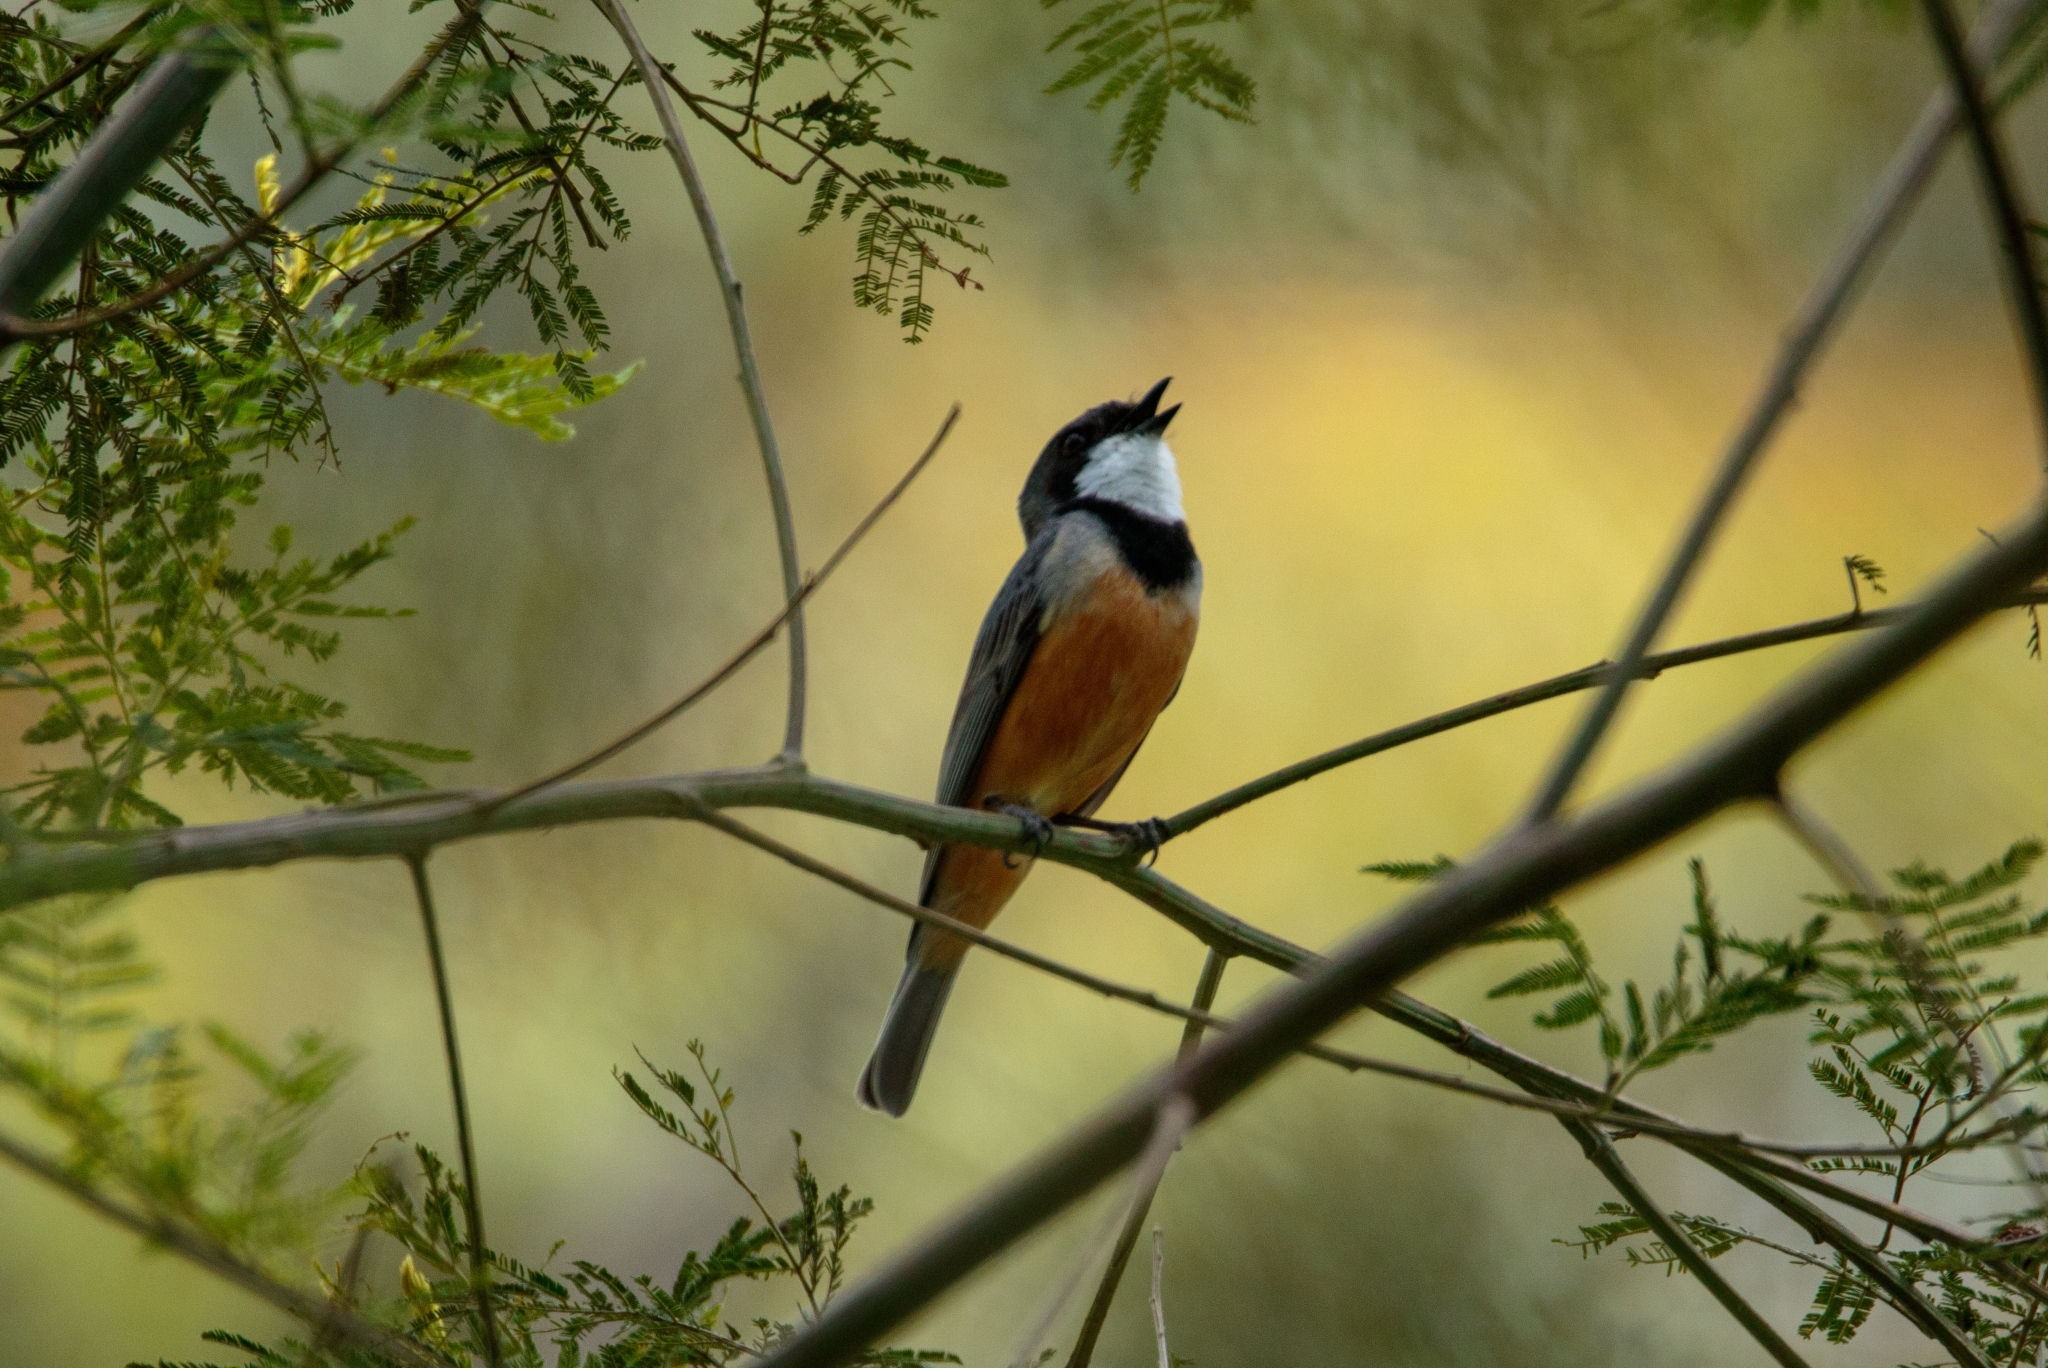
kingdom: Animalia
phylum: Chordata
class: Aves
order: Passeriformes
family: Pachycephalidae
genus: Pachycephala
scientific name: Pachycephala rufiventris
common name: Rufous whistler
